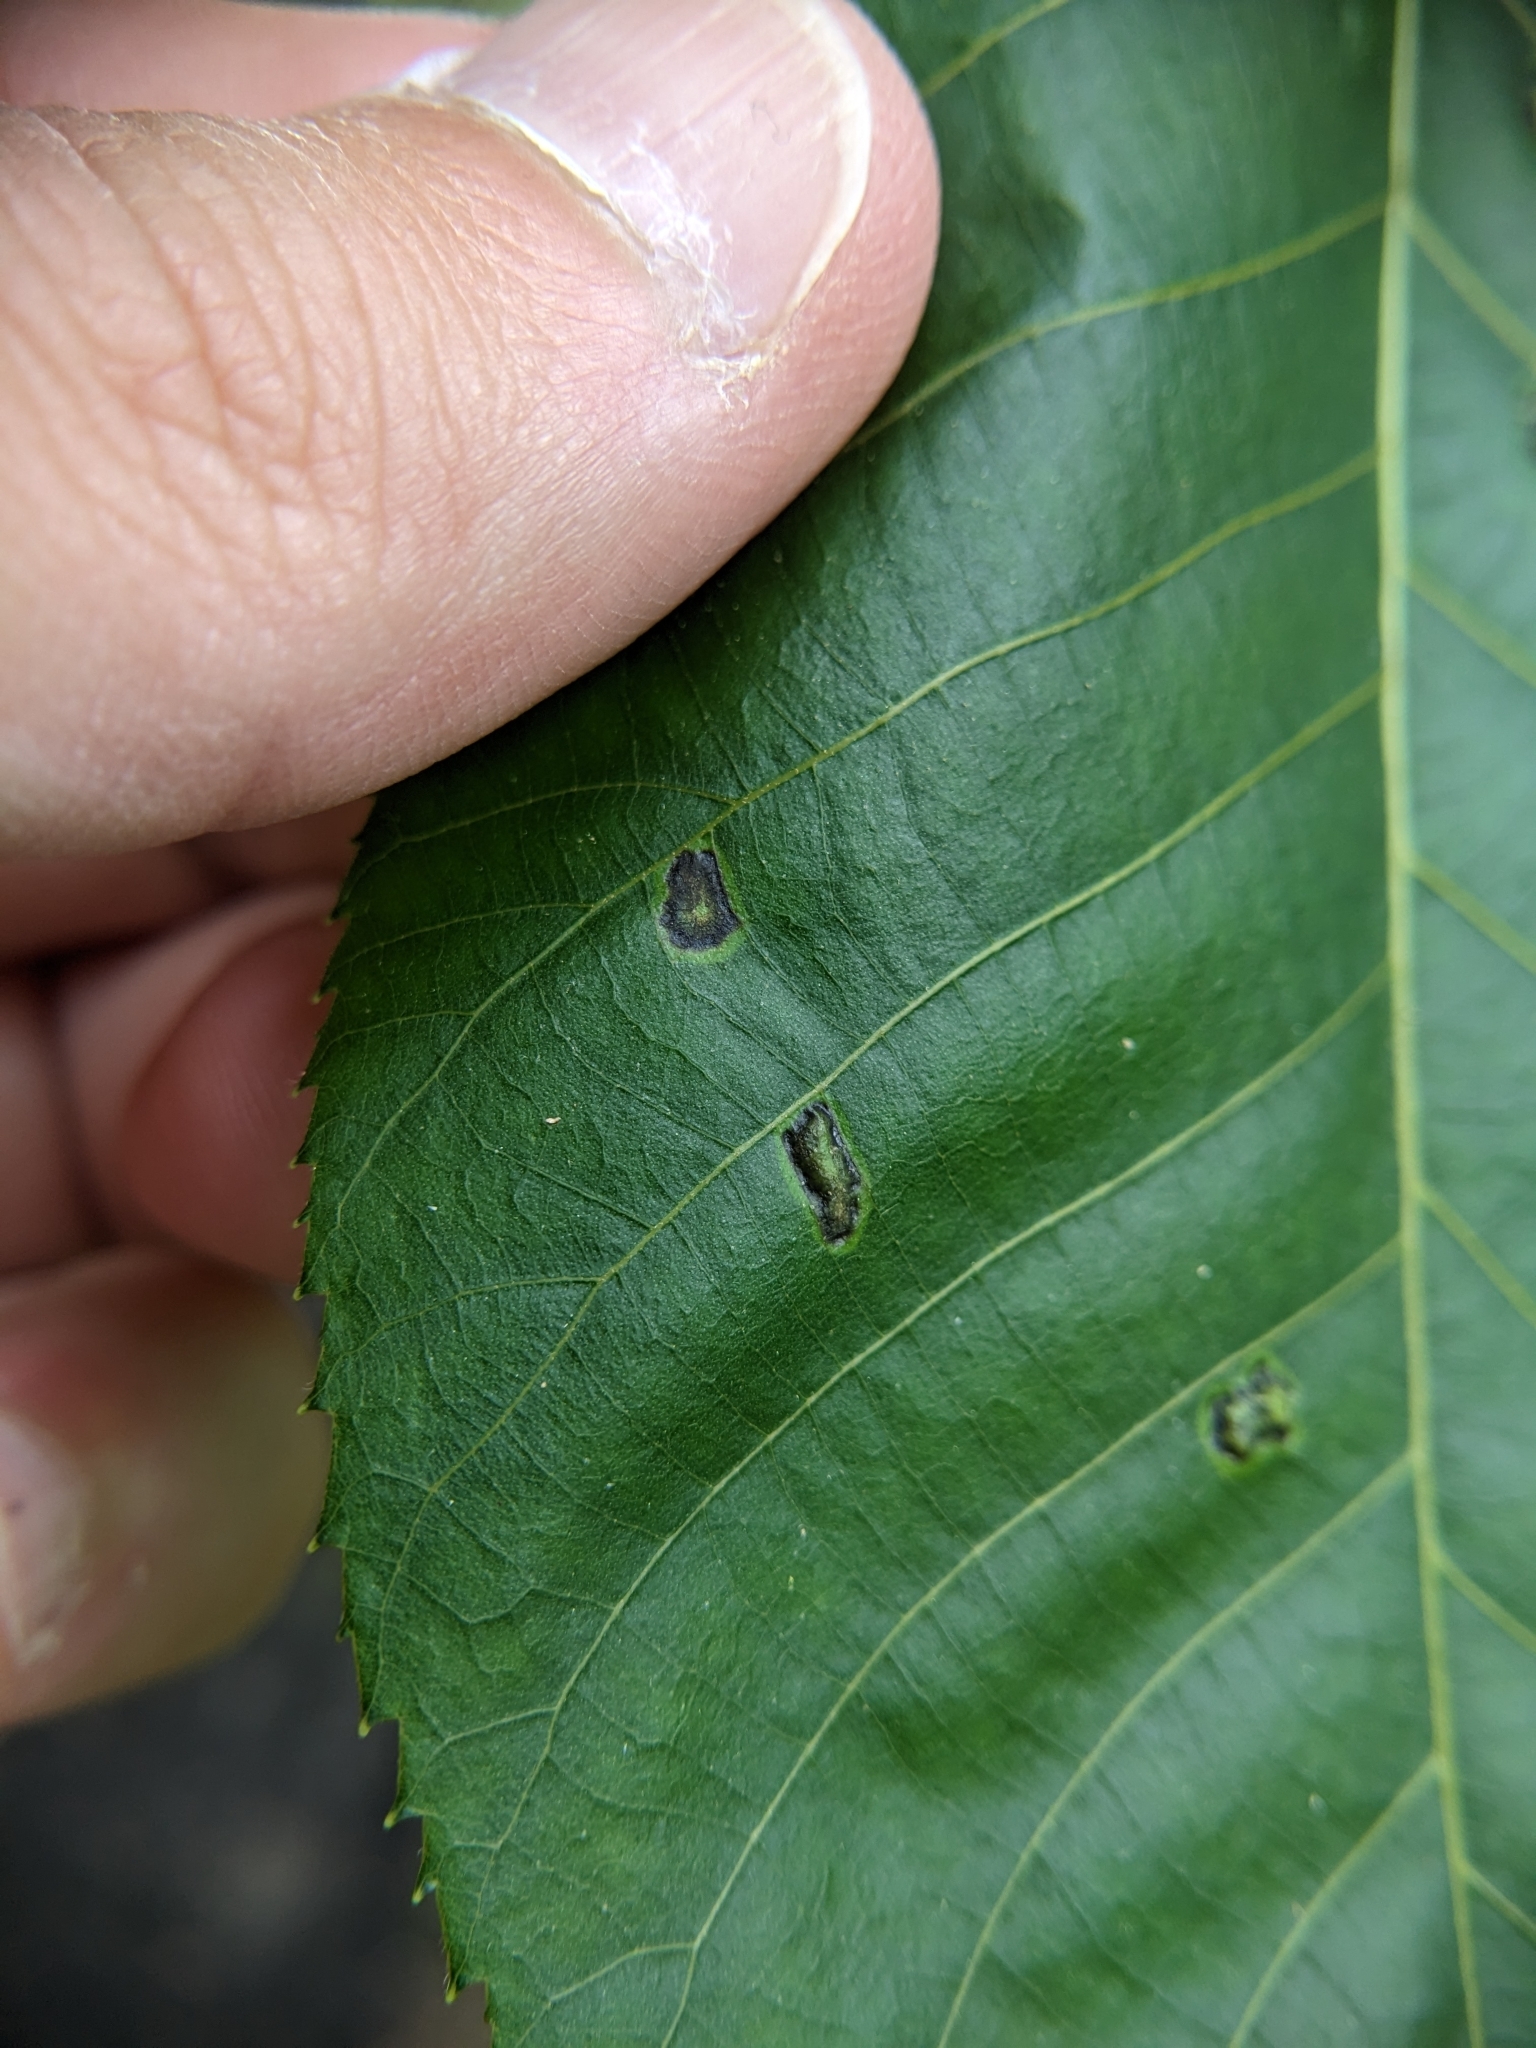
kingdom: Animalia
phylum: Arthropoda
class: Insecta
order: Diptera
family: Cecidomyiidae
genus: Gliaspilota
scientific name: Gliaspilota glutinosa
